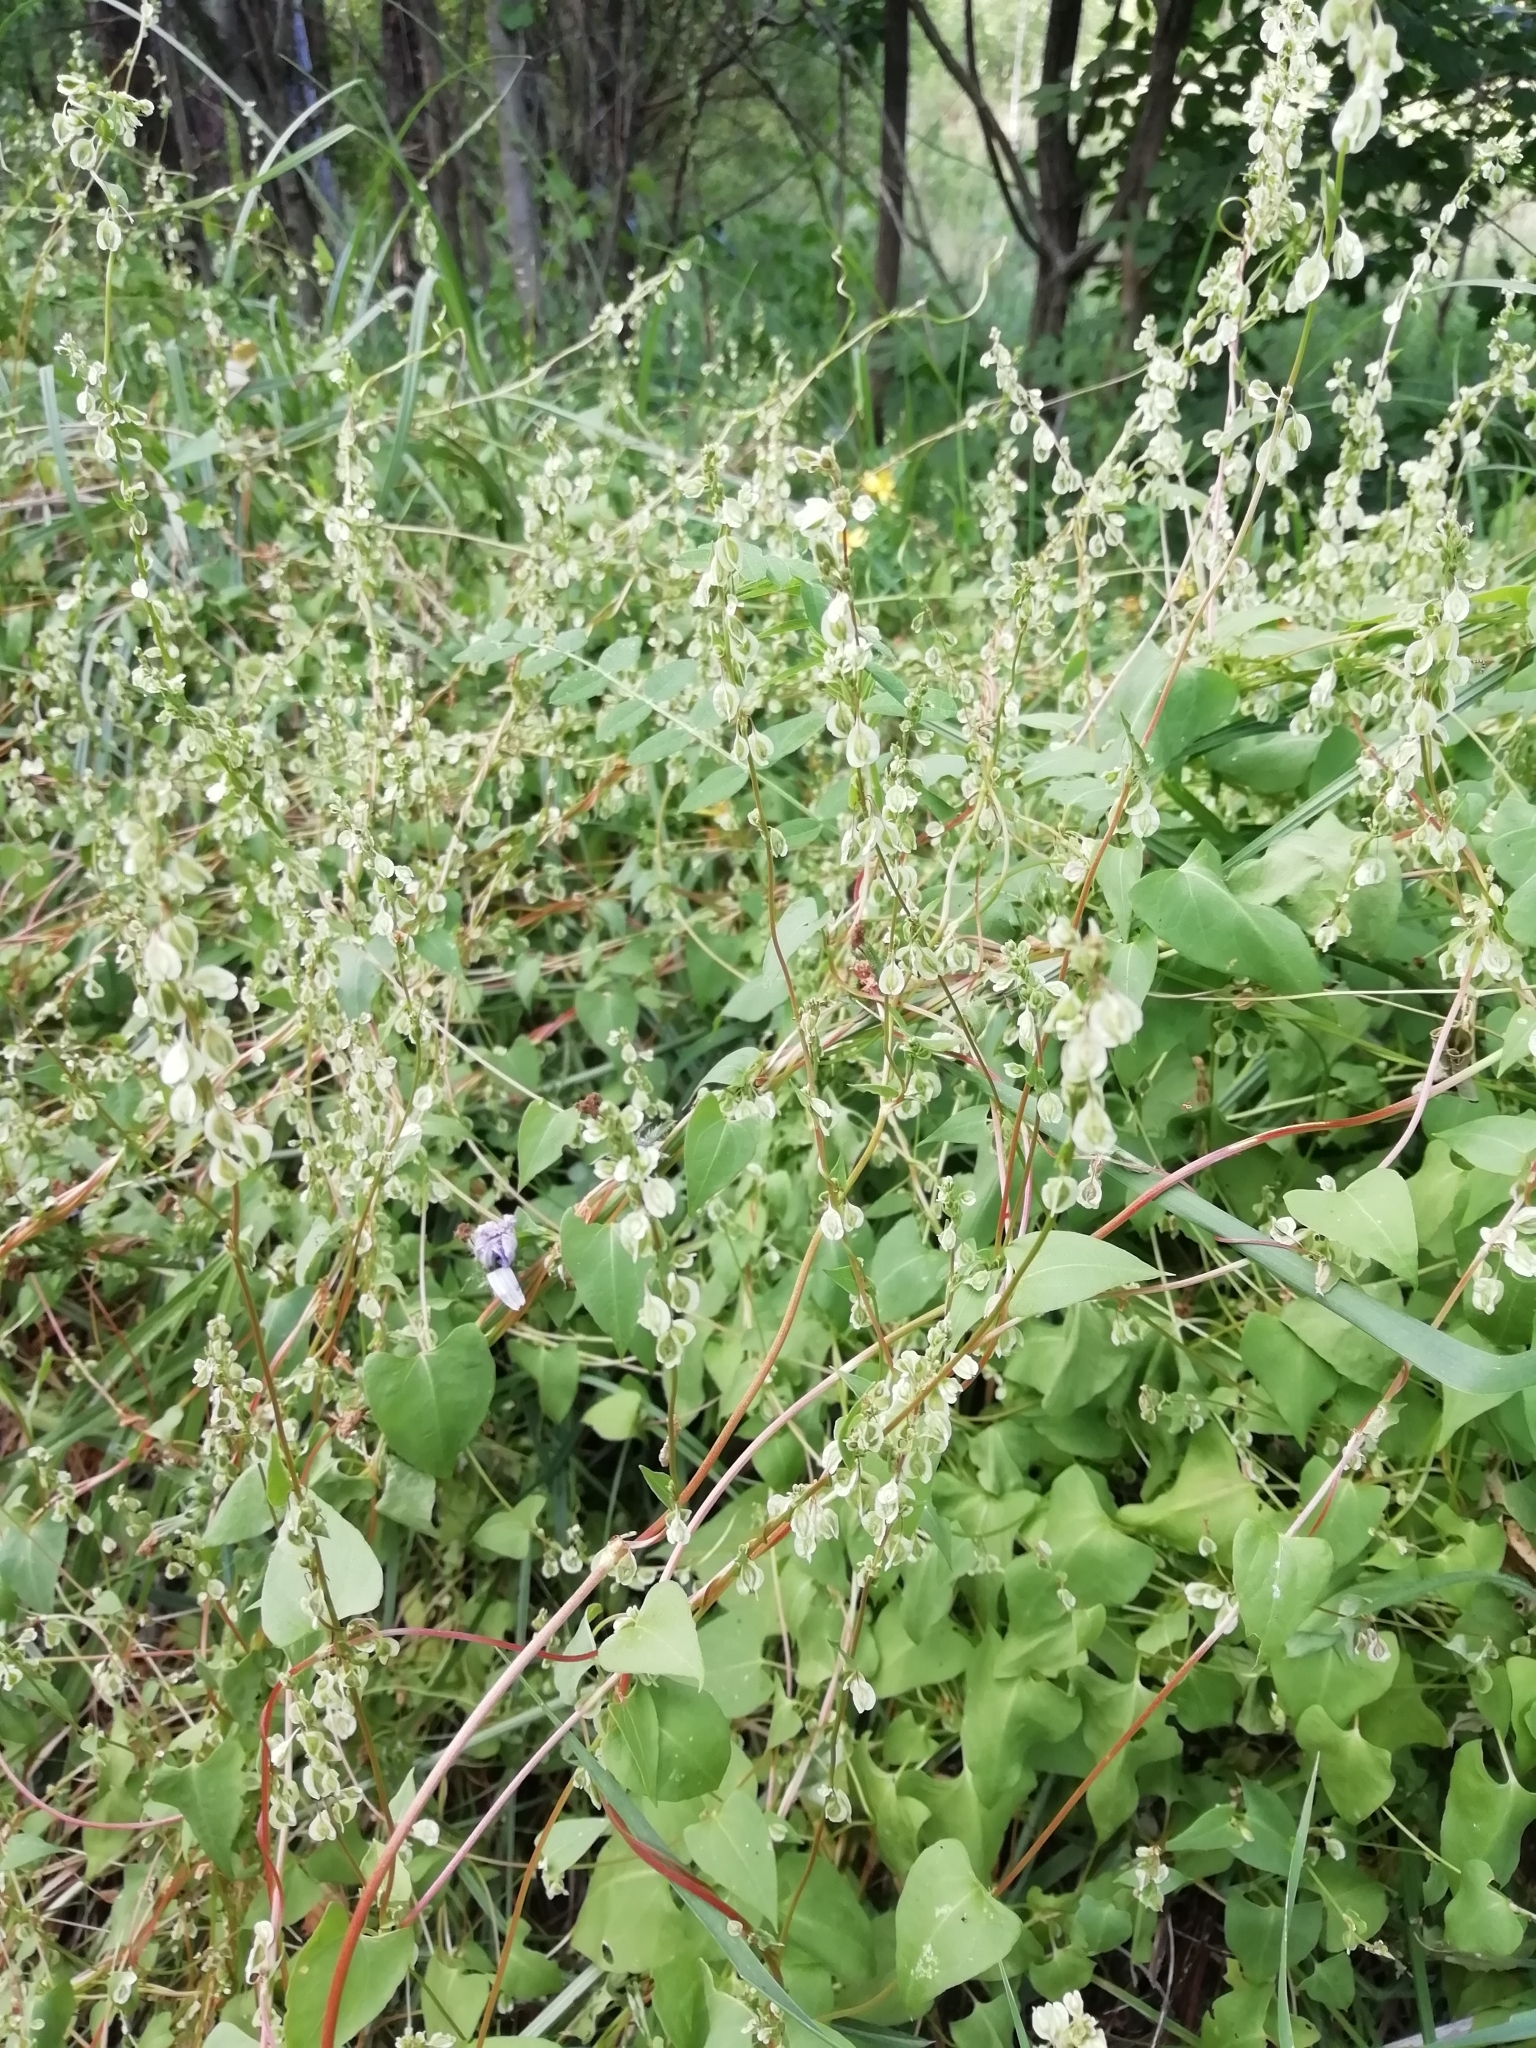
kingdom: Plantae
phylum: Tracheophyta
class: Magnoliopsida
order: Caryophyllales
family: Polygonaceae
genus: Fallopia
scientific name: Fallopia dumetorum
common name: Copse-bindweed
